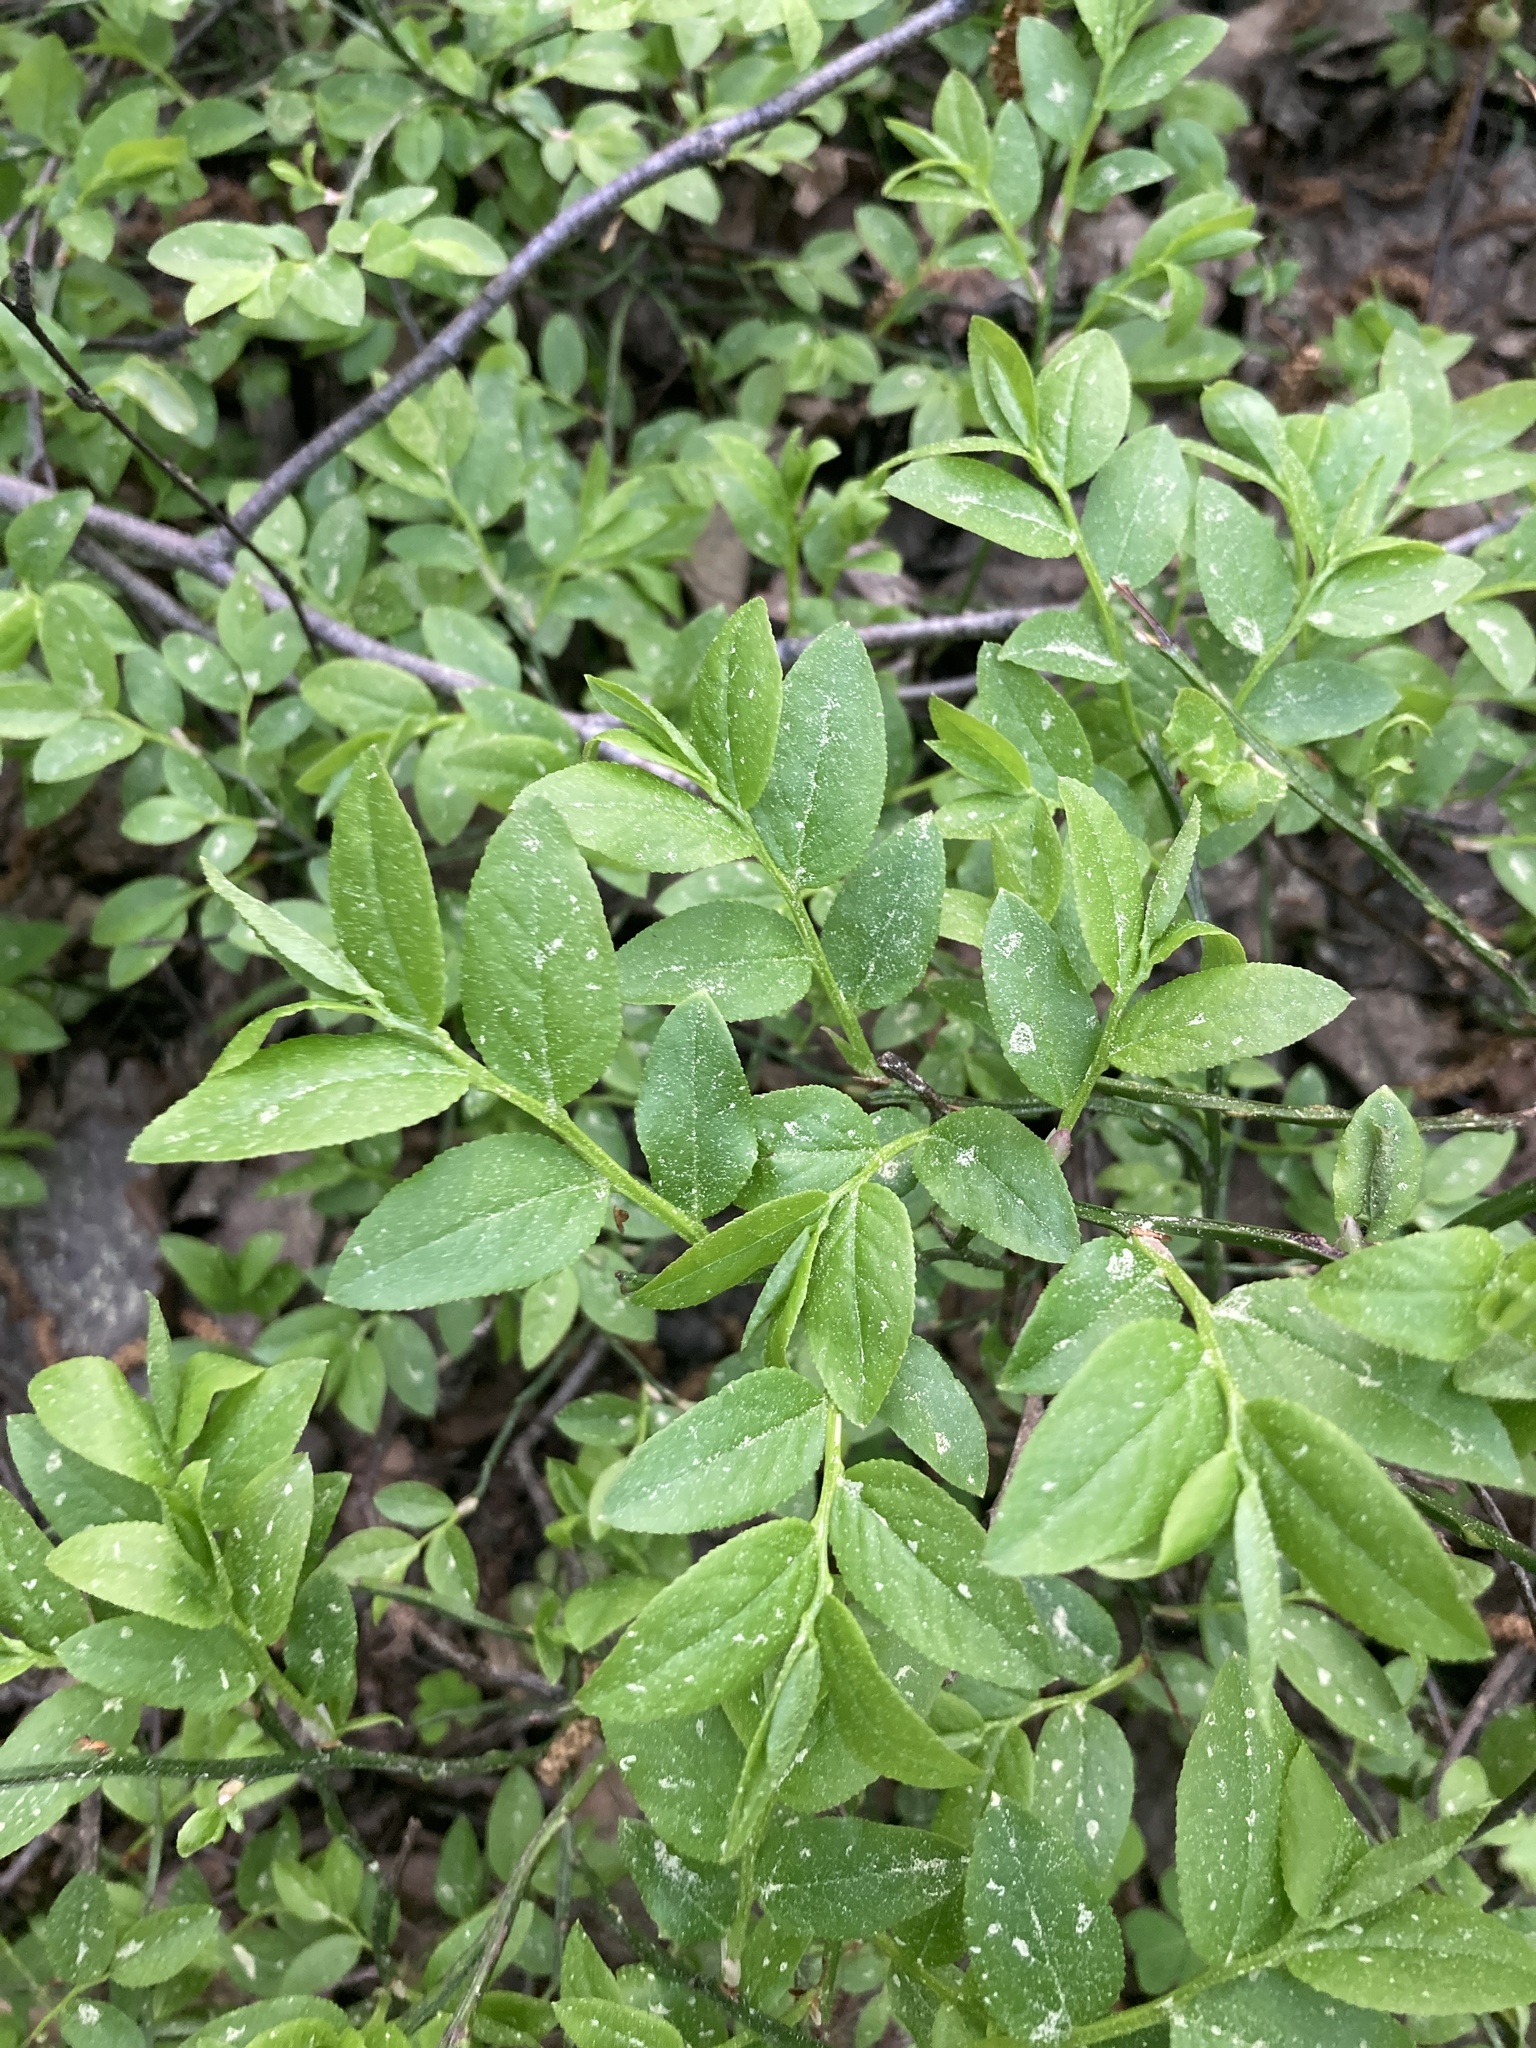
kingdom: Plantae
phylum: Tracheophyta
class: Magnoliopsida
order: Ericales
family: Ericaceae
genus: Vaccinium
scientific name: Vaccinium myrtillus
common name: Bilberry
